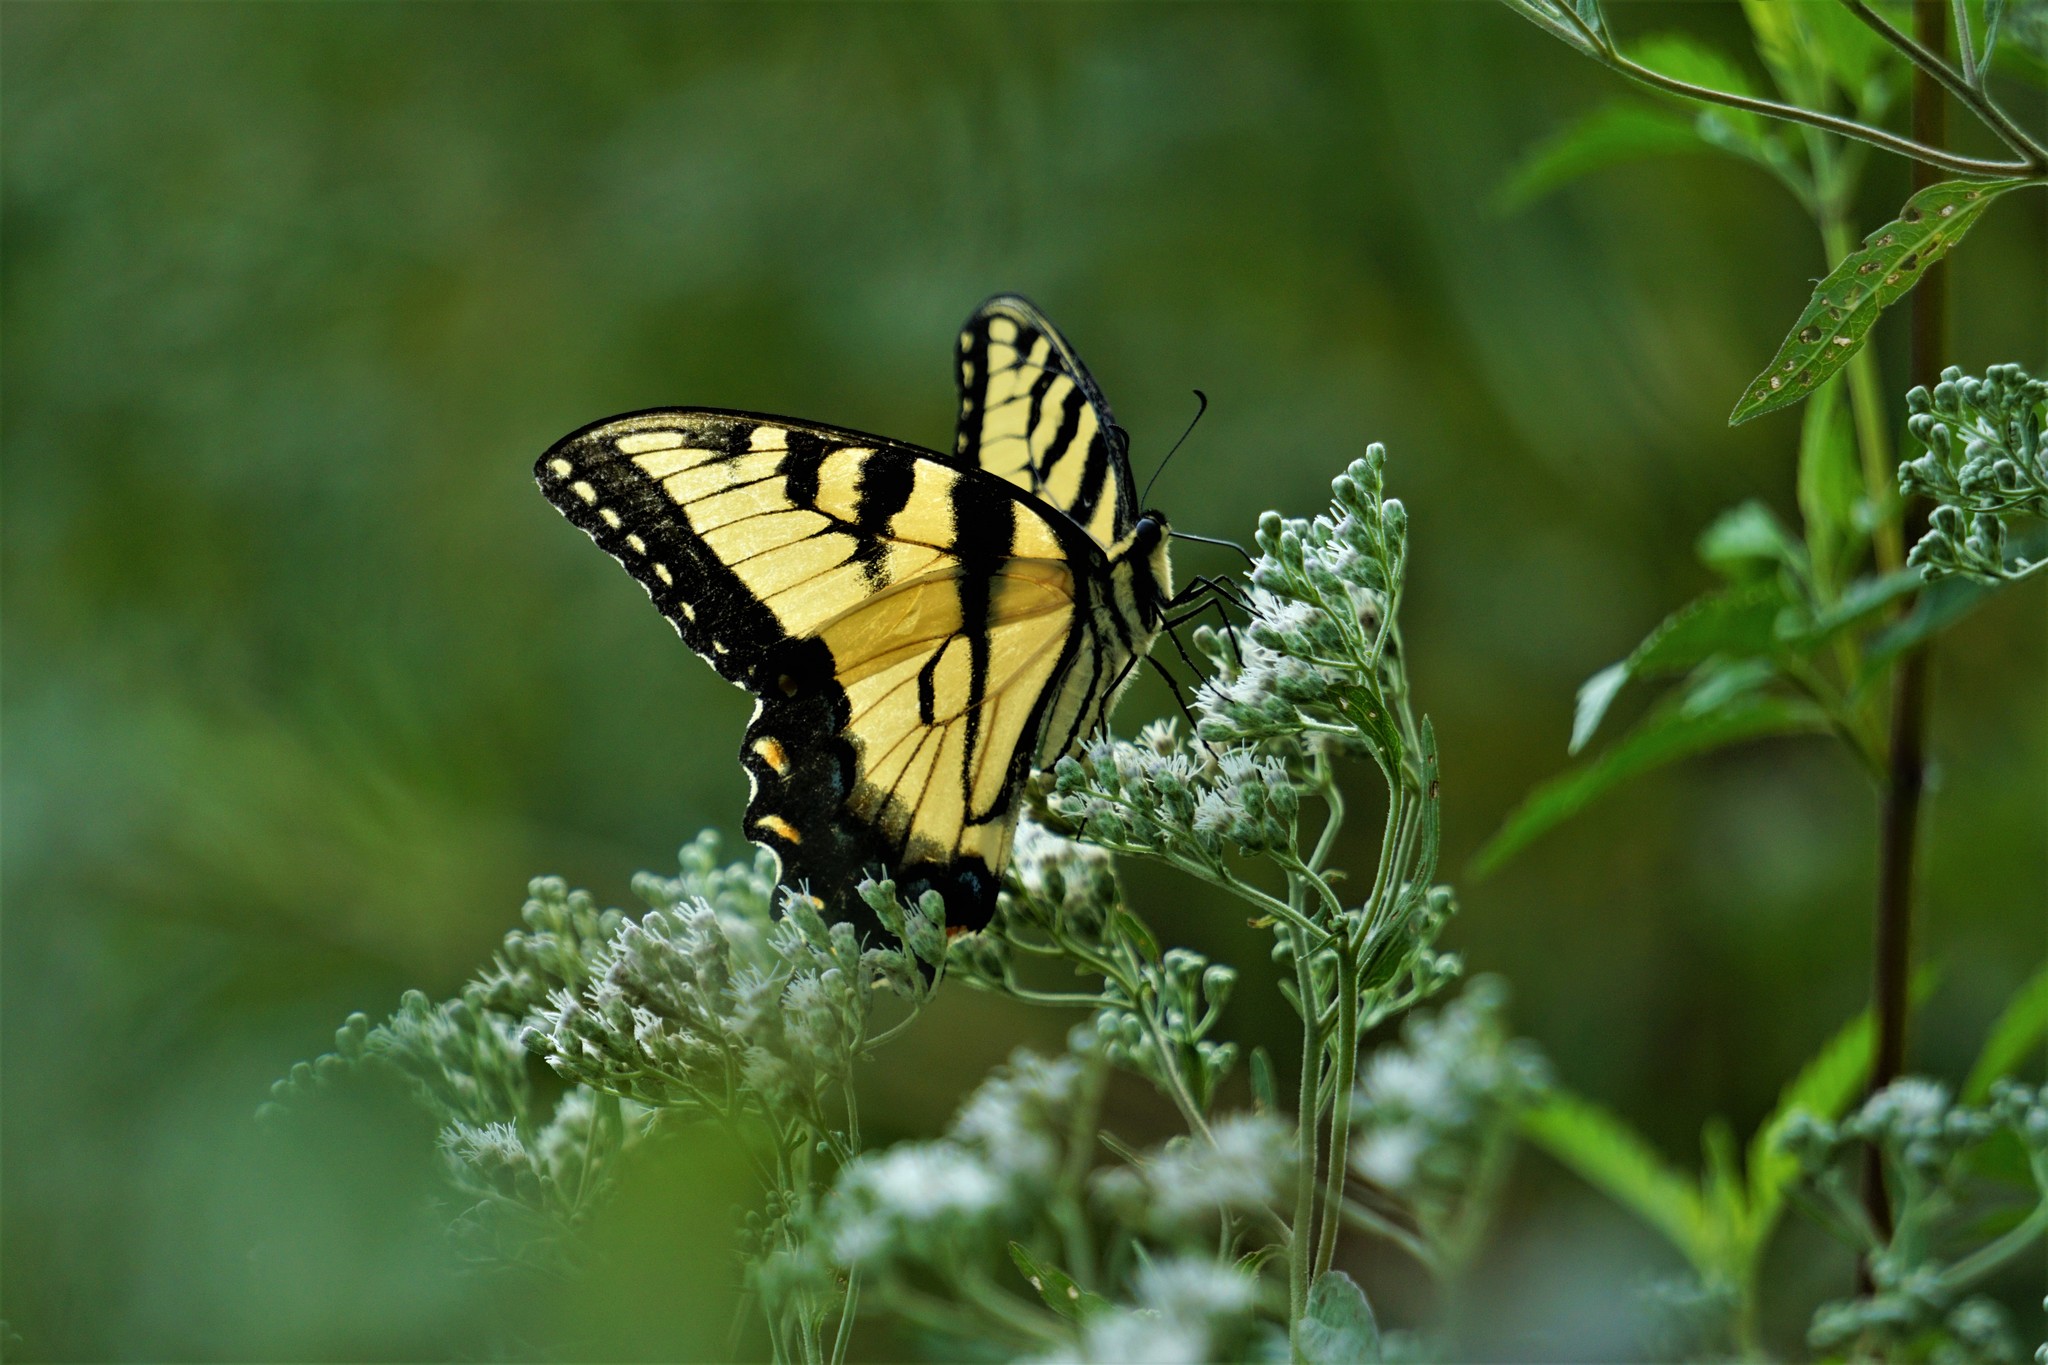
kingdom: Animalia
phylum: Arthropoda
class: Insecta
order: Lepidoptera
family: Papilionidae
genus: Papilio
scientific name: Papilio glaucus
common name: Tiger swallowtail
